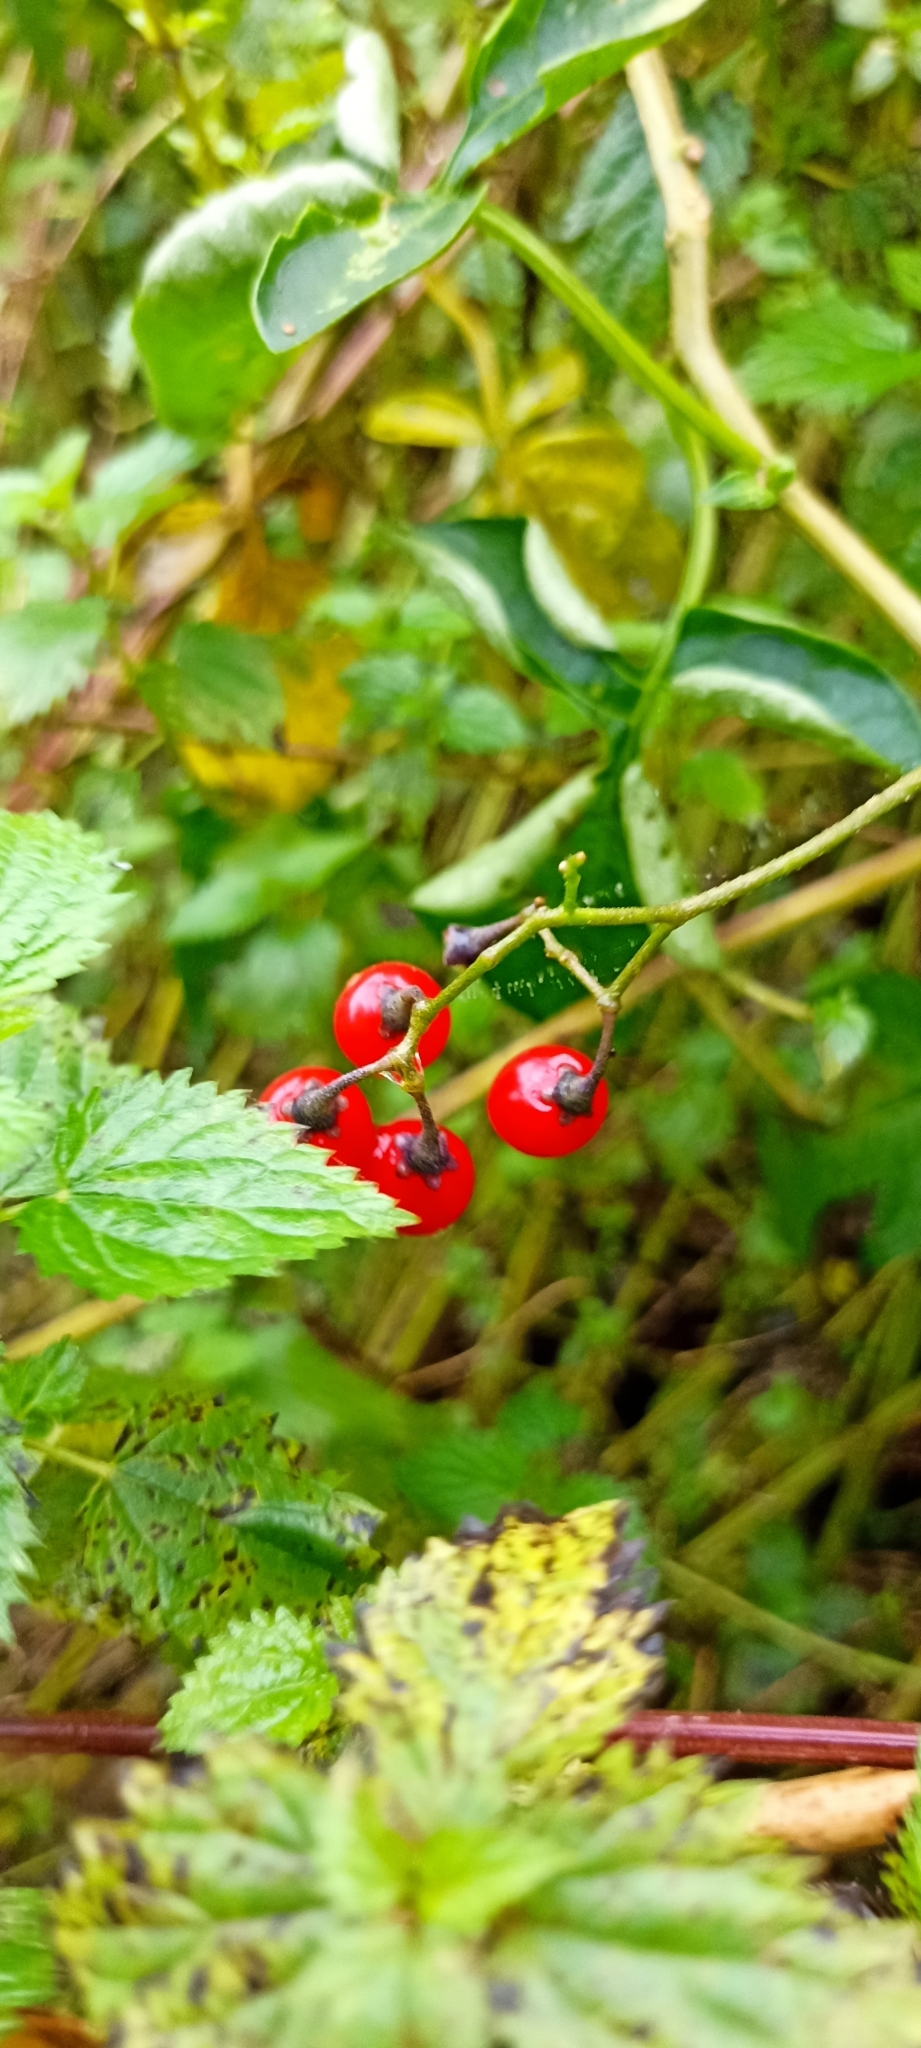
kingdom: Plantae
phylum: Tracheophyta
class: Magnoliopsida
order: Solanales
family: Solanaceae
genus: Solanum
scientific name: Solanum dulcamara
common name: Climbing nightshade
